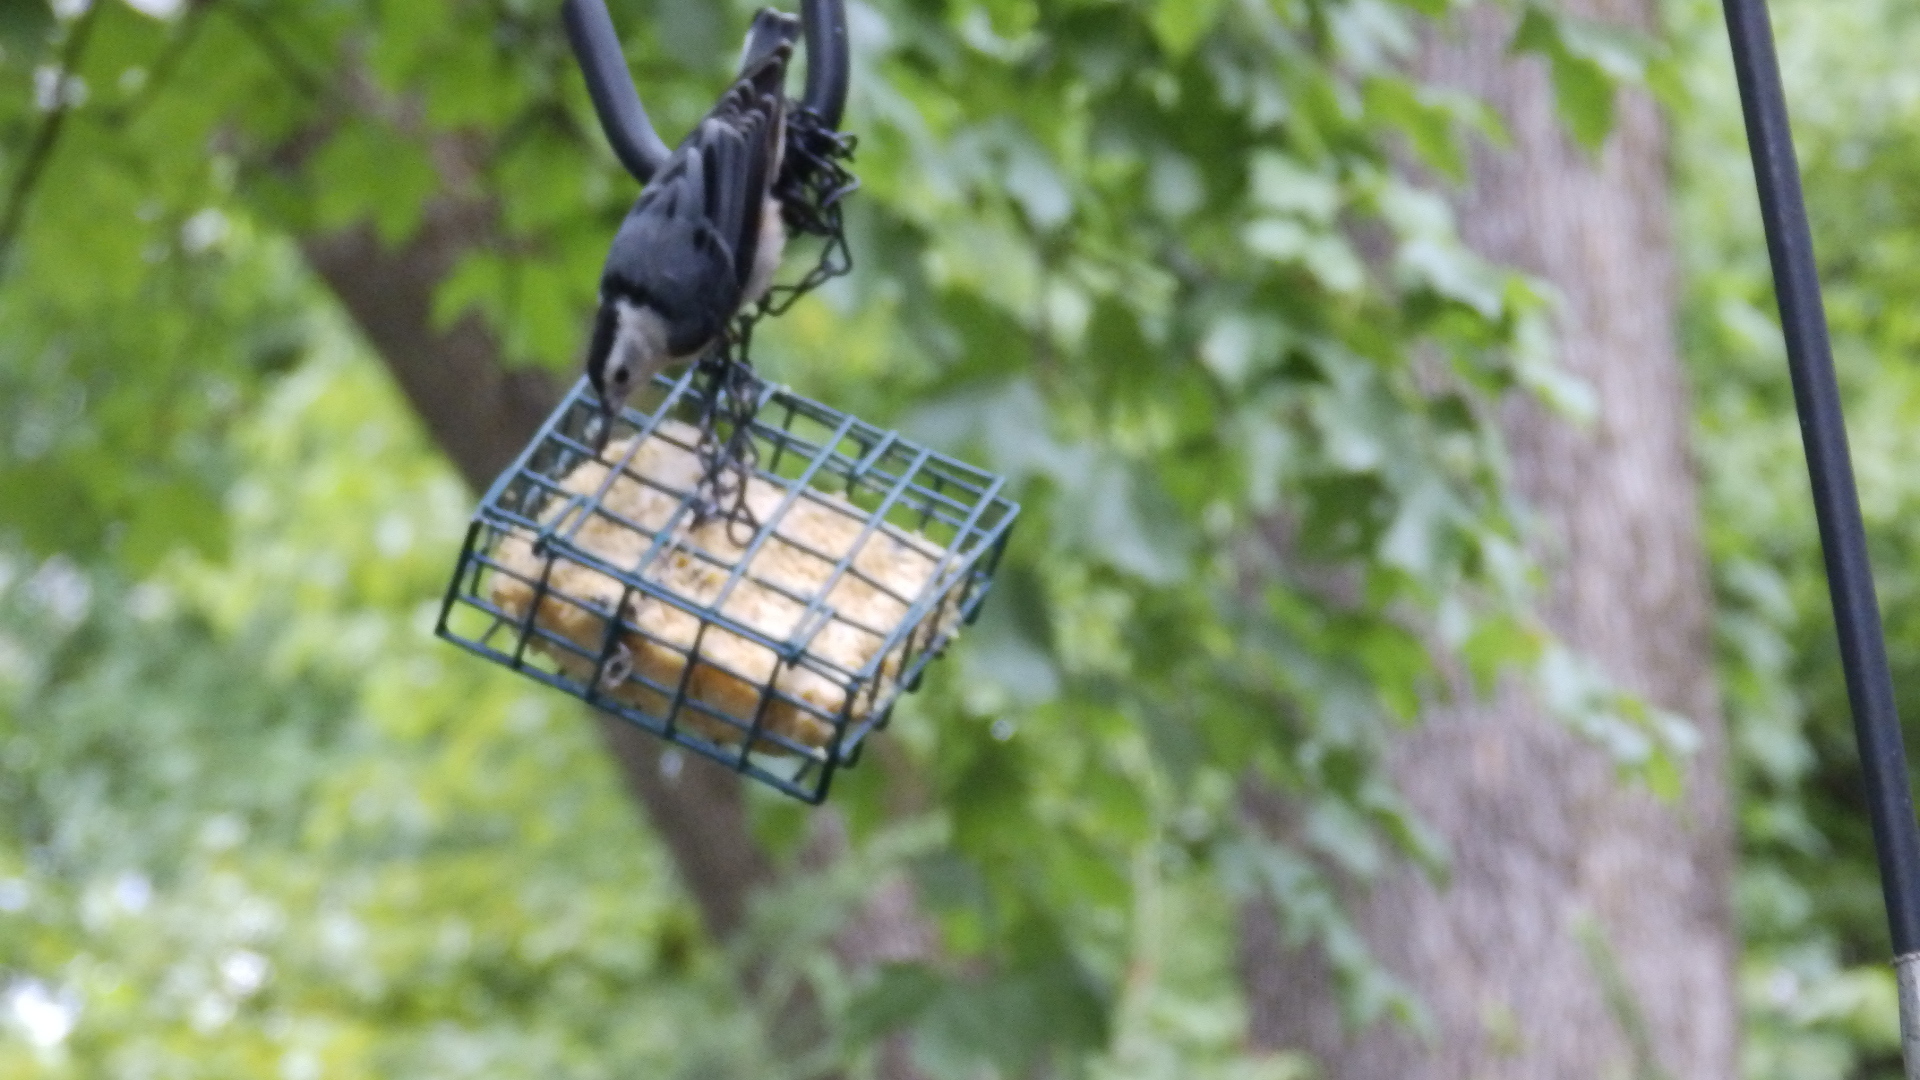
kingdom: Animalia
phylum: Chordata
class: Aves
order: Passeriformes
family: Sittidae
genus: Sitta
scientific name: Sitta carolinensis
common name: White-breasted nuthatch
